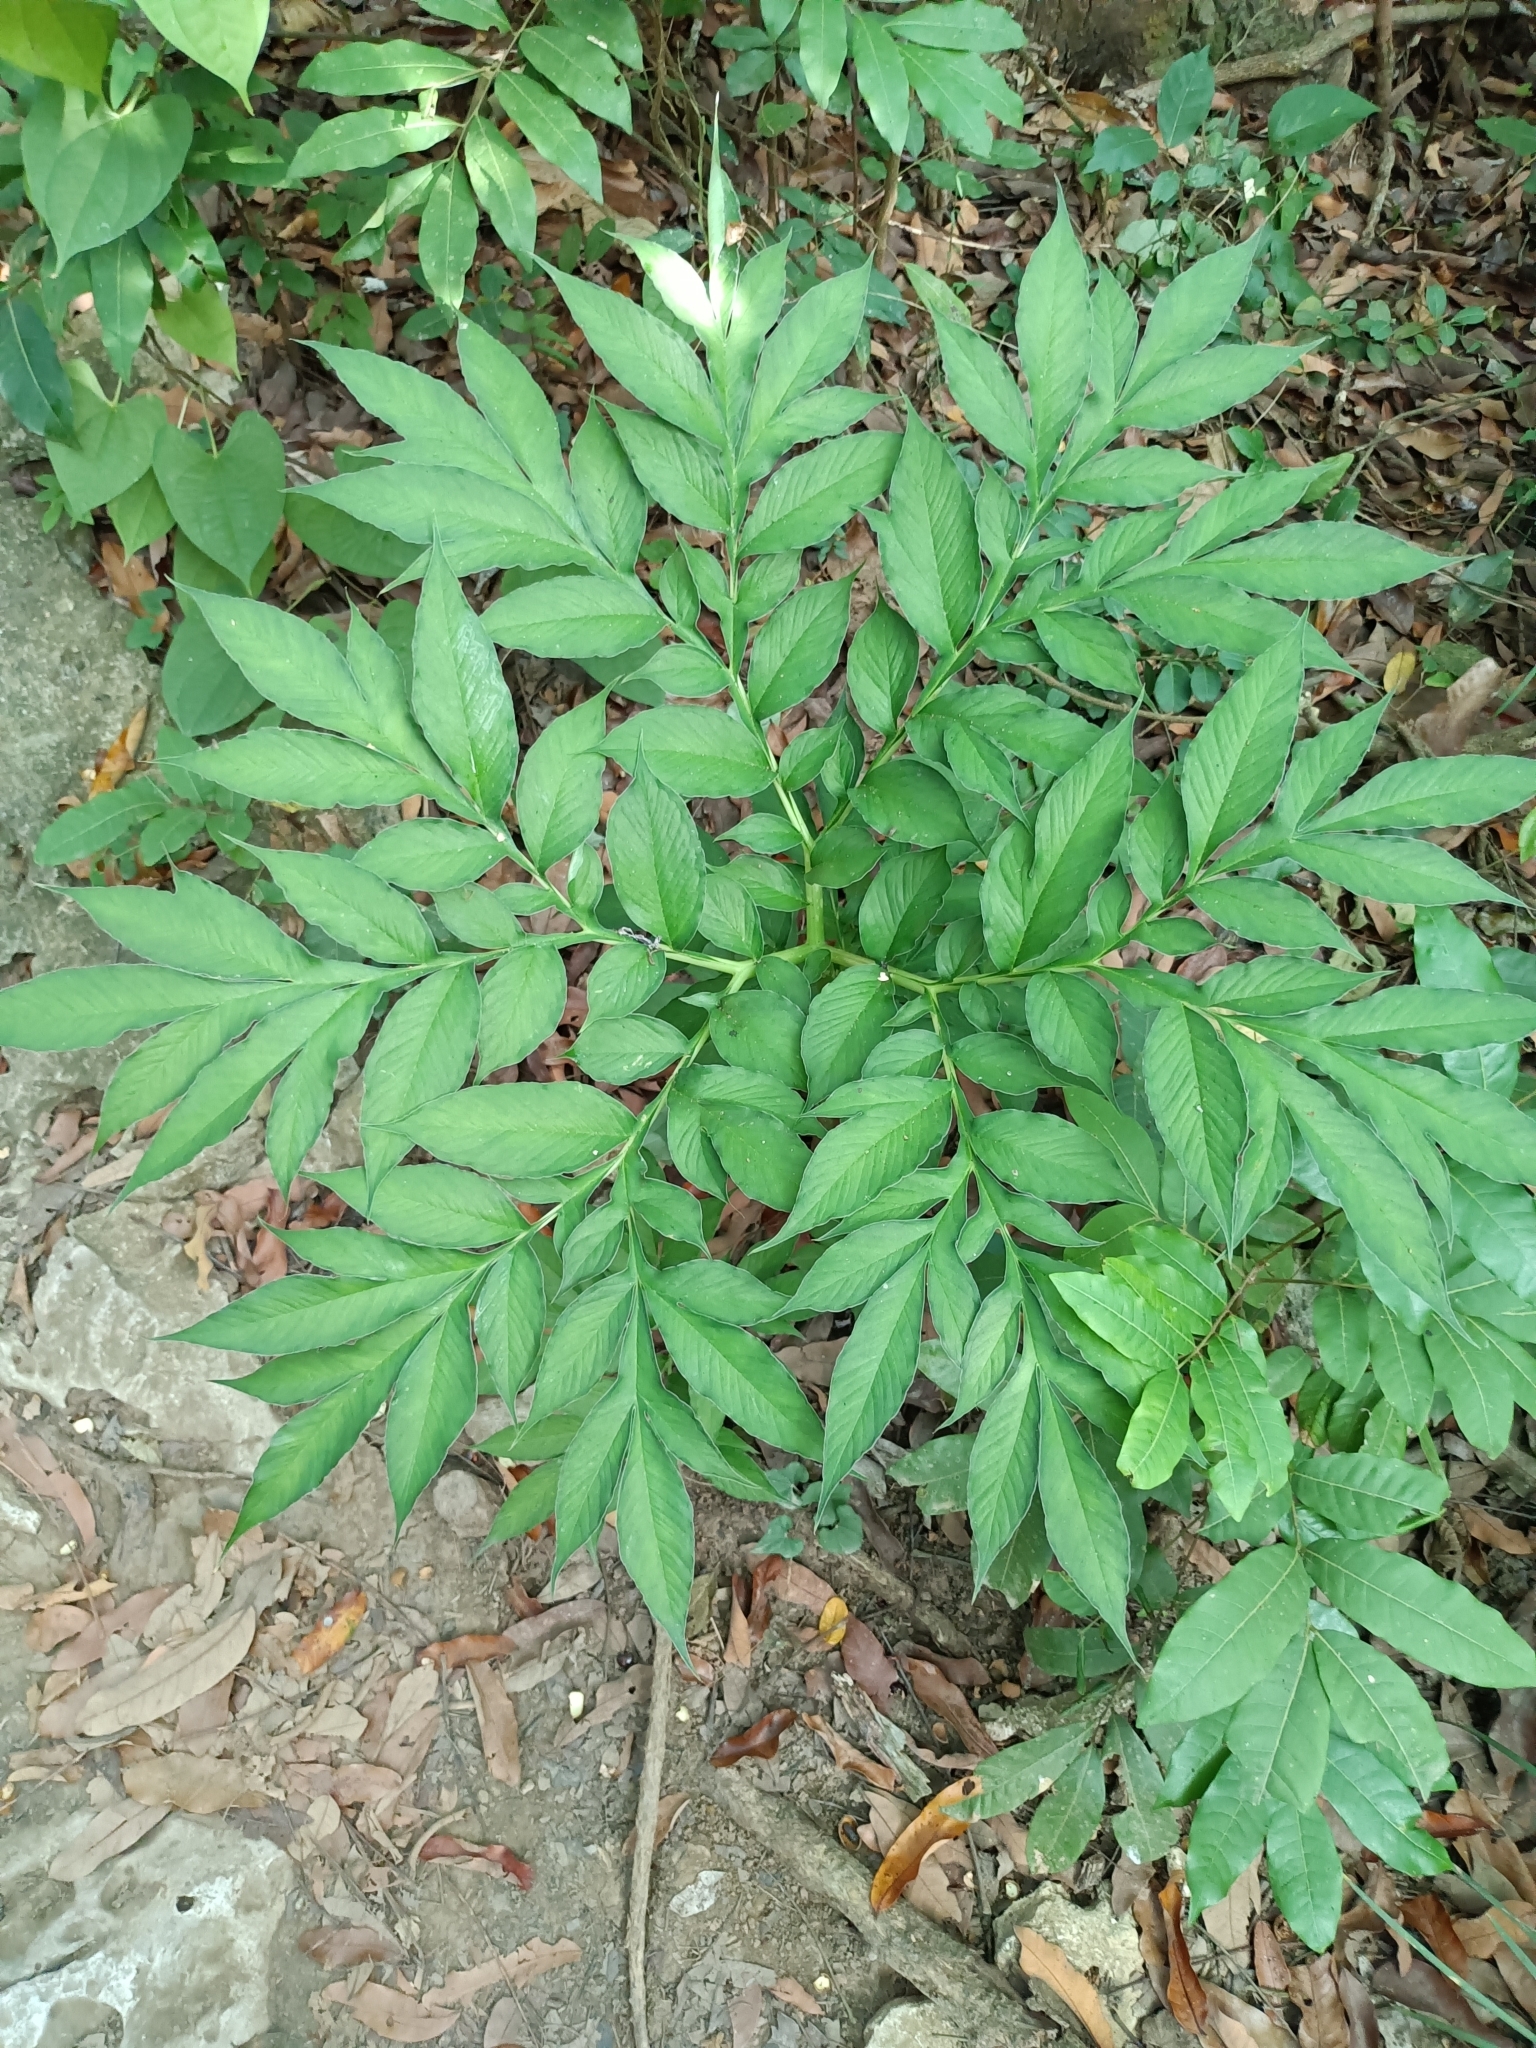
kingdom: Plantae
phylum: Tracheophyta
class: Liliopsida
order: Alismatales
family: Araceae
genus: Amorphophallus
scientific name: Amorphophallus henryi
